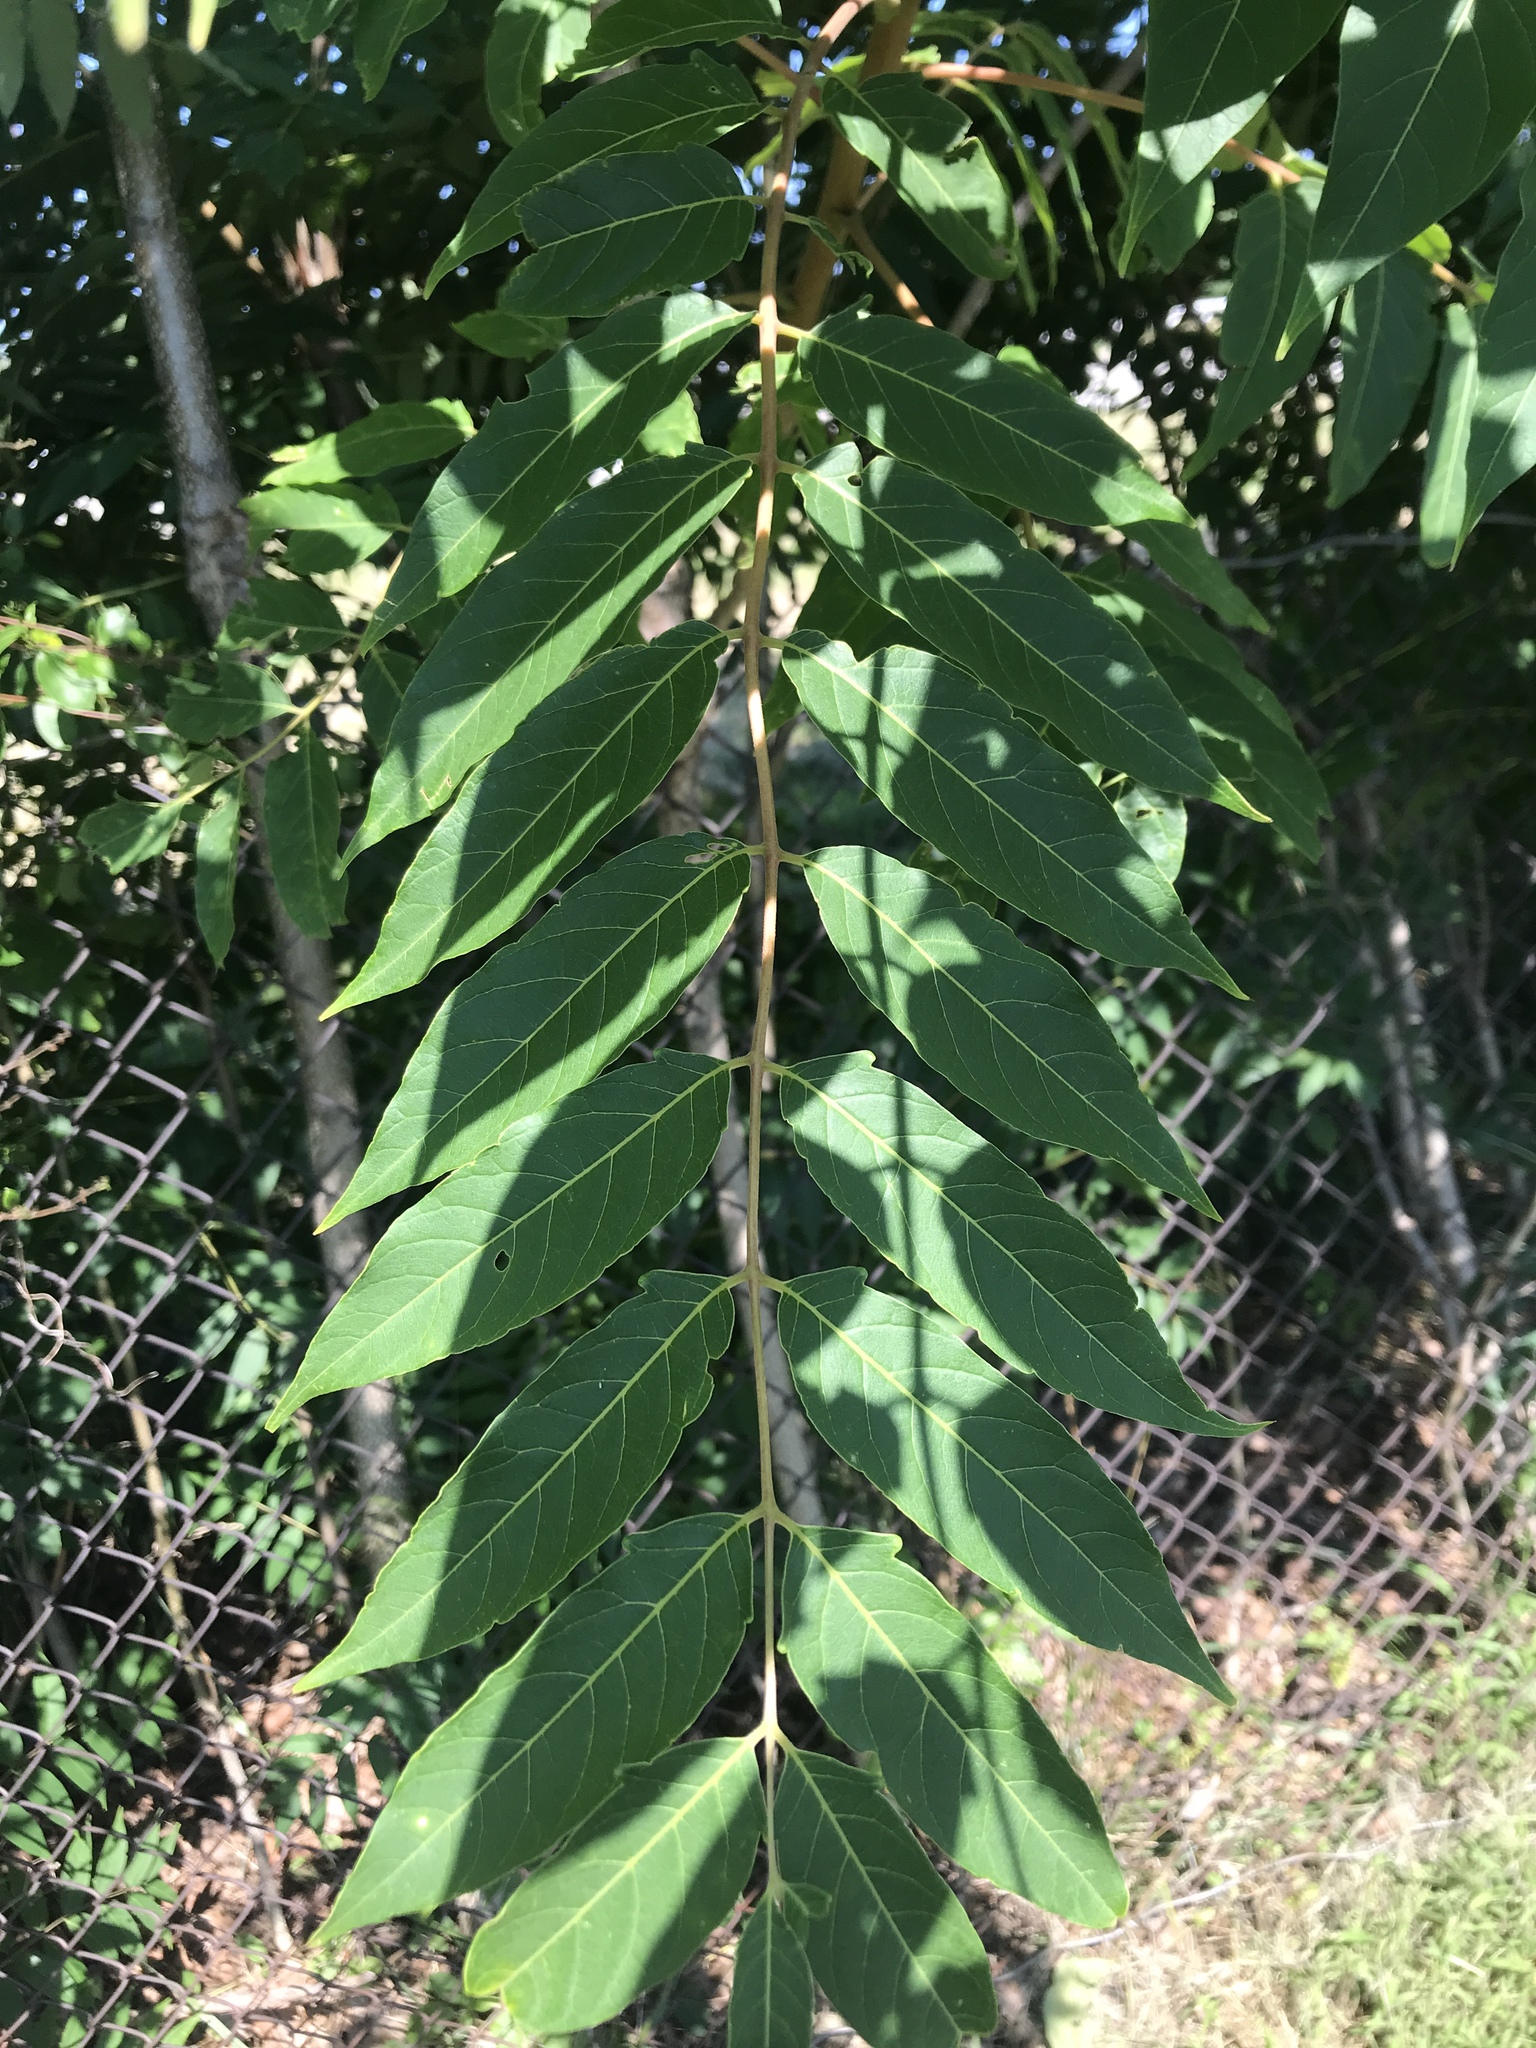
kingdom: Plantae
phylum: Tracheophyta
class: Magnoliopsida
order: Sapindales
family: Simaroubaceae
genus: Ailanthus
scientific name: Ailanthus altissima
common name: Tree-of-heaven
